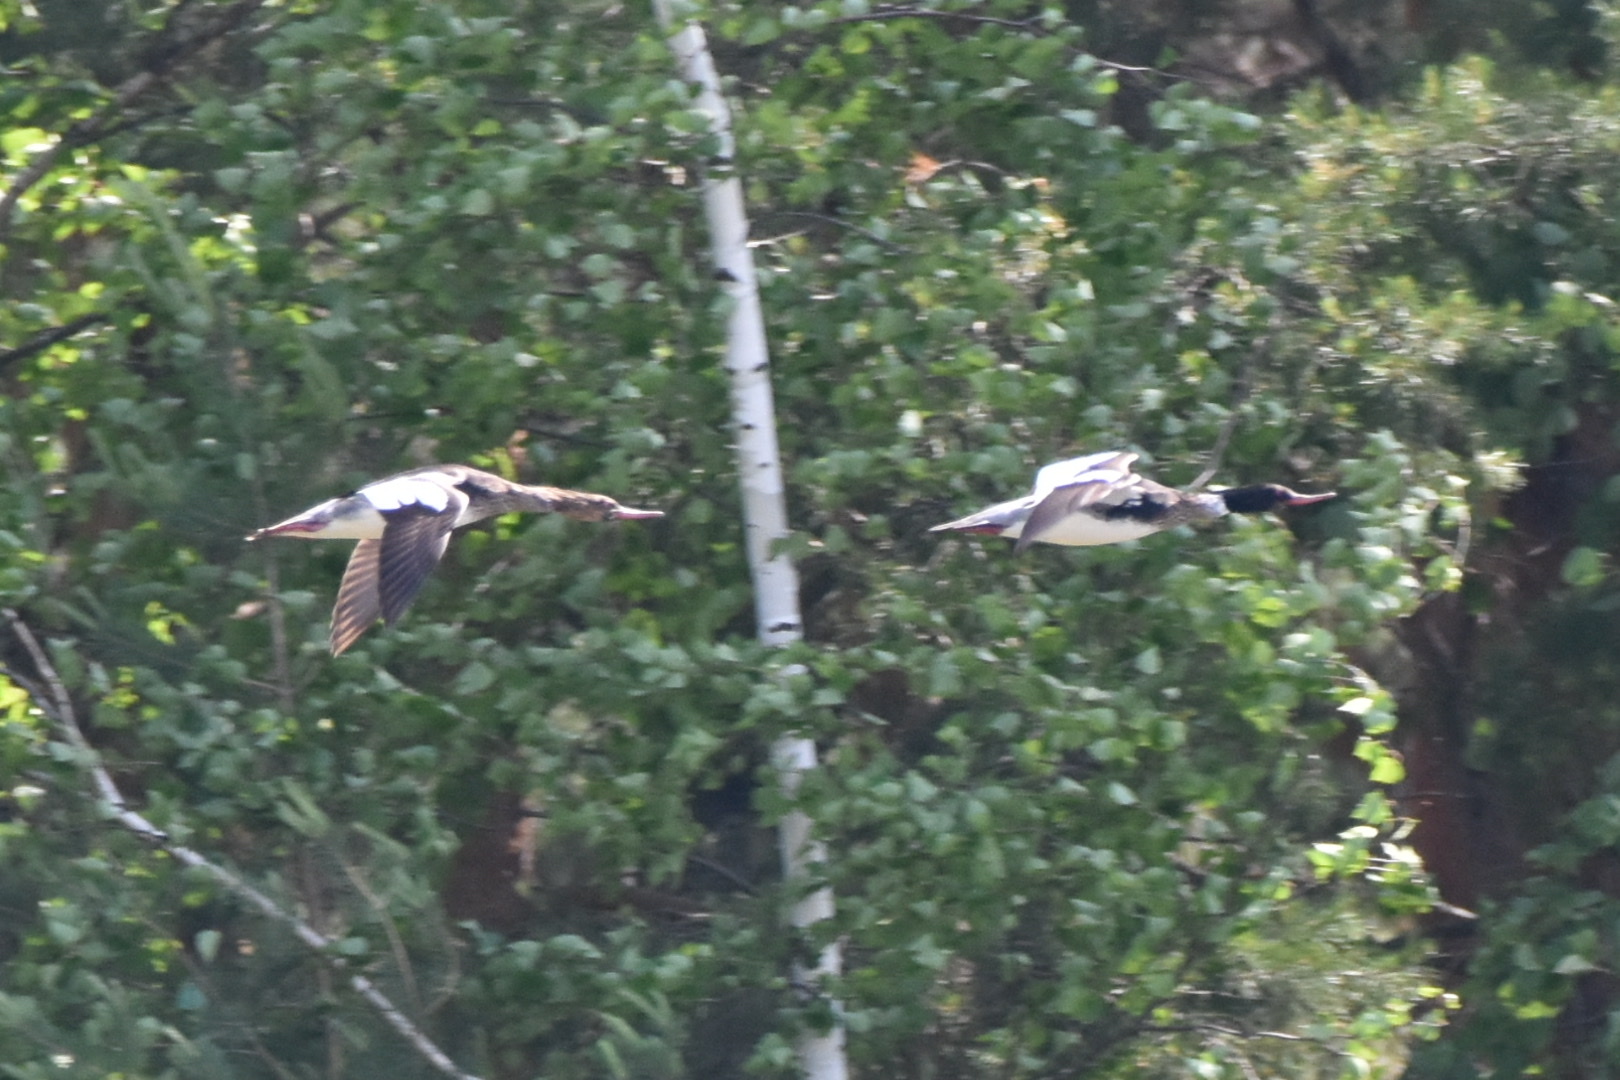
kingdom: Animalia
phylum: Chordata
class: Aves
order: Anseriformes
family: Anatidae
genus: Mergus
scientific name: Mergus serrator
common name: Red-breasted merganser
